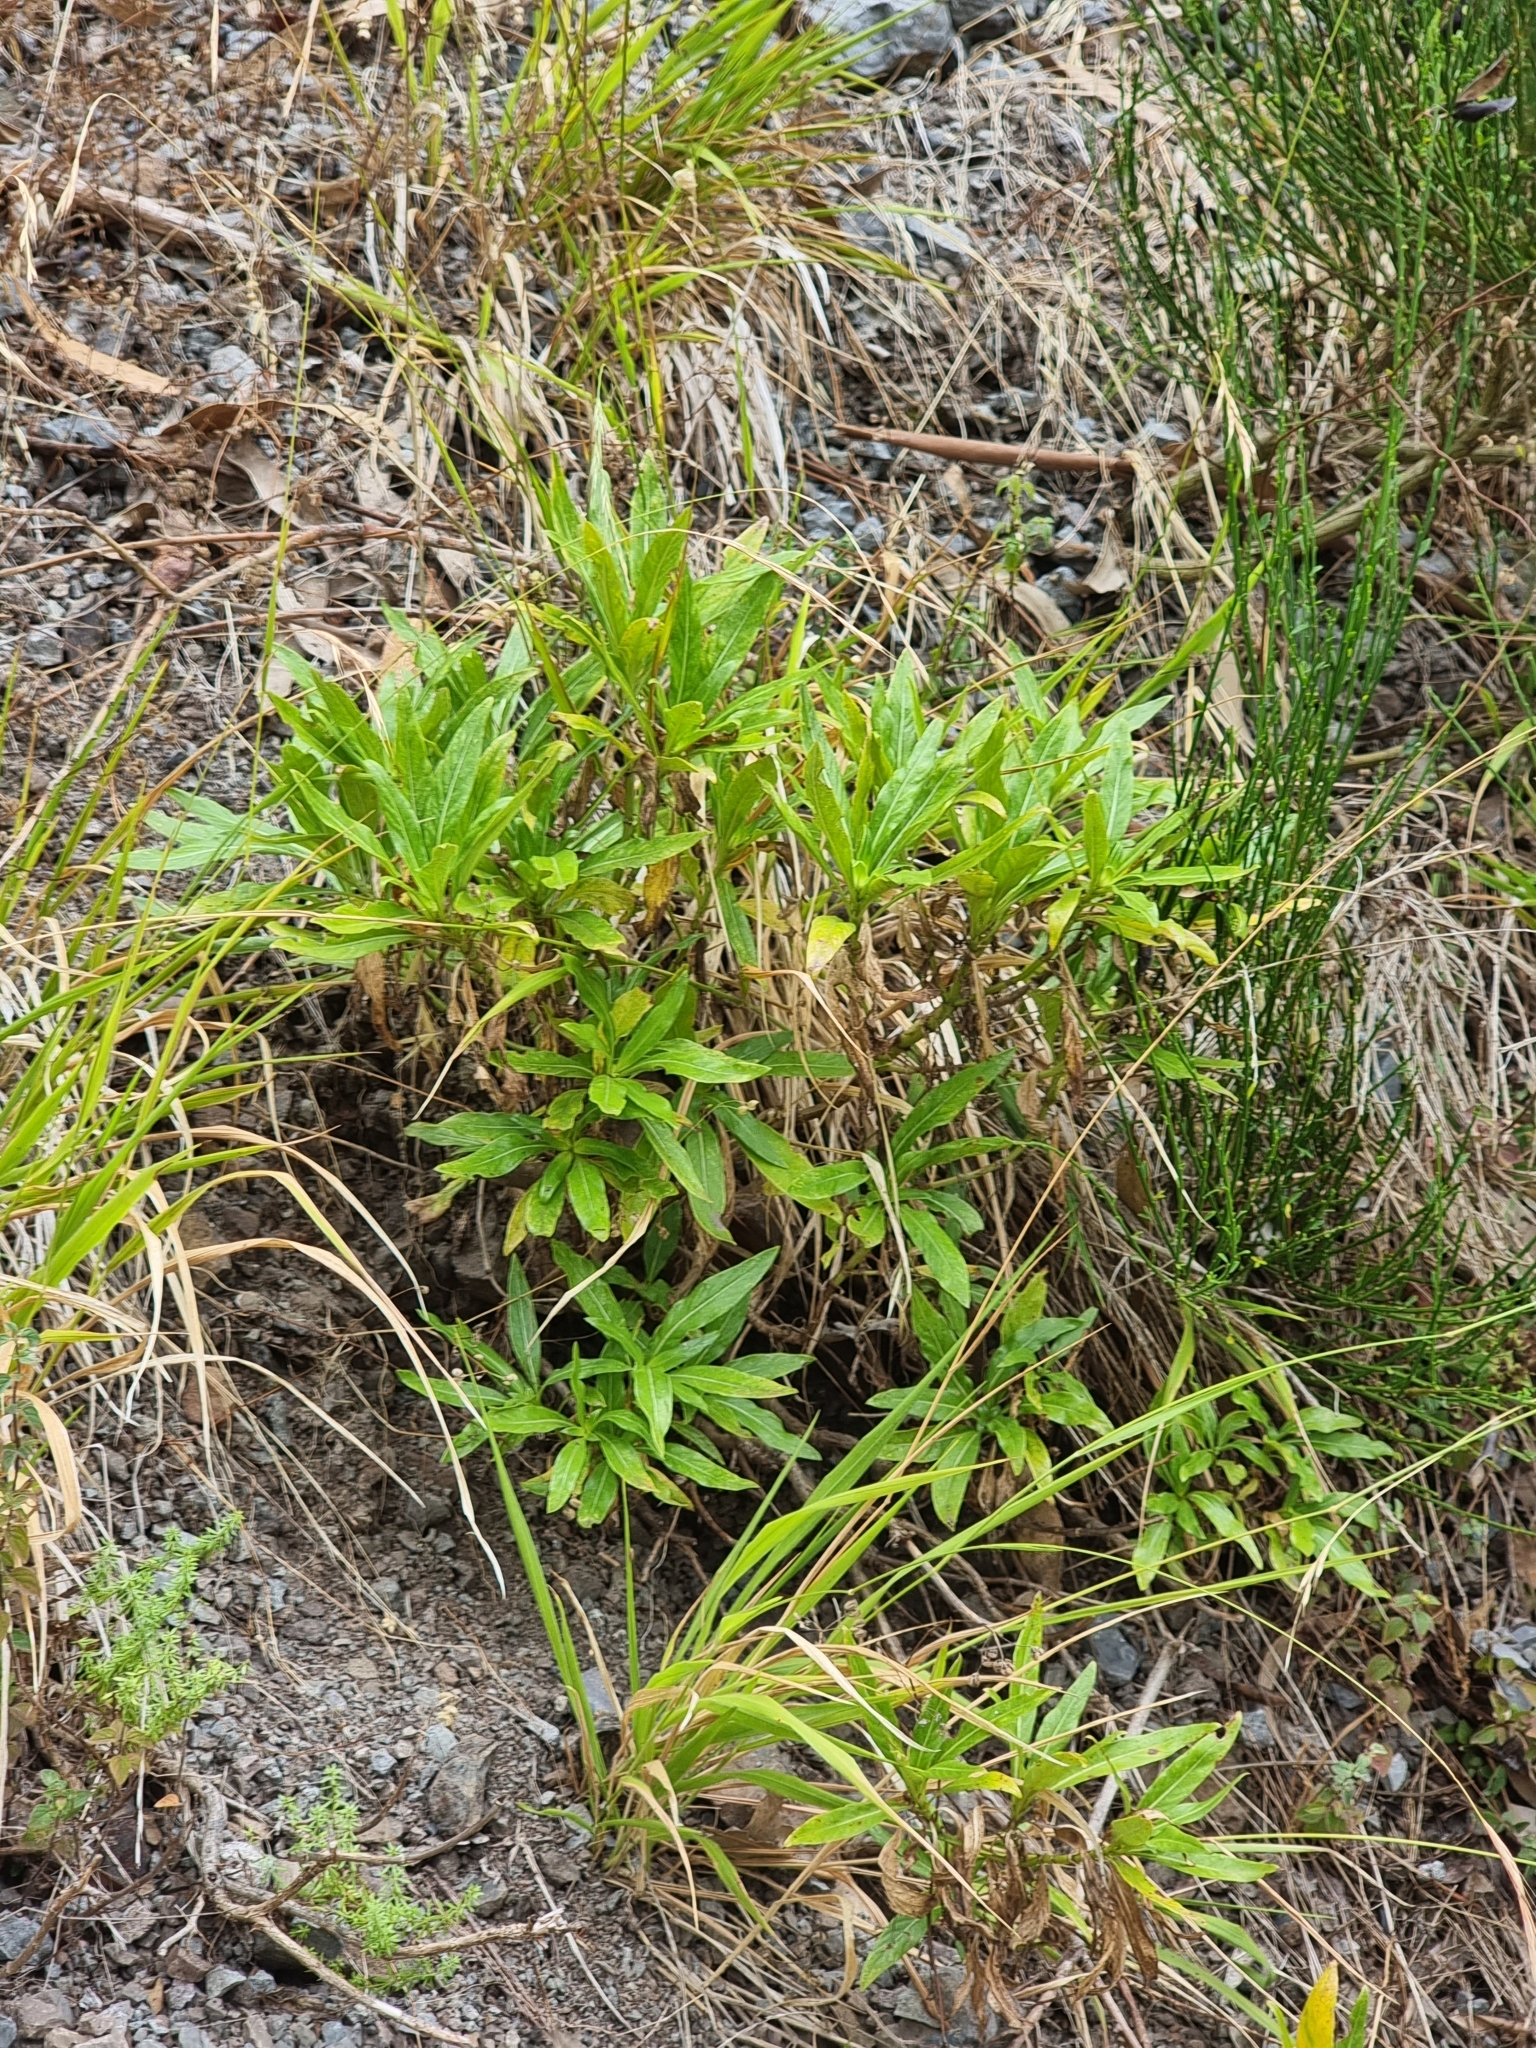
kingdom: Plantae
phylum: Tracheophyta
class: Magnoliopsida
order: Gentianales
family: Rubiaceae
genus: Phyllis
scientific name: Phyllis nobla
